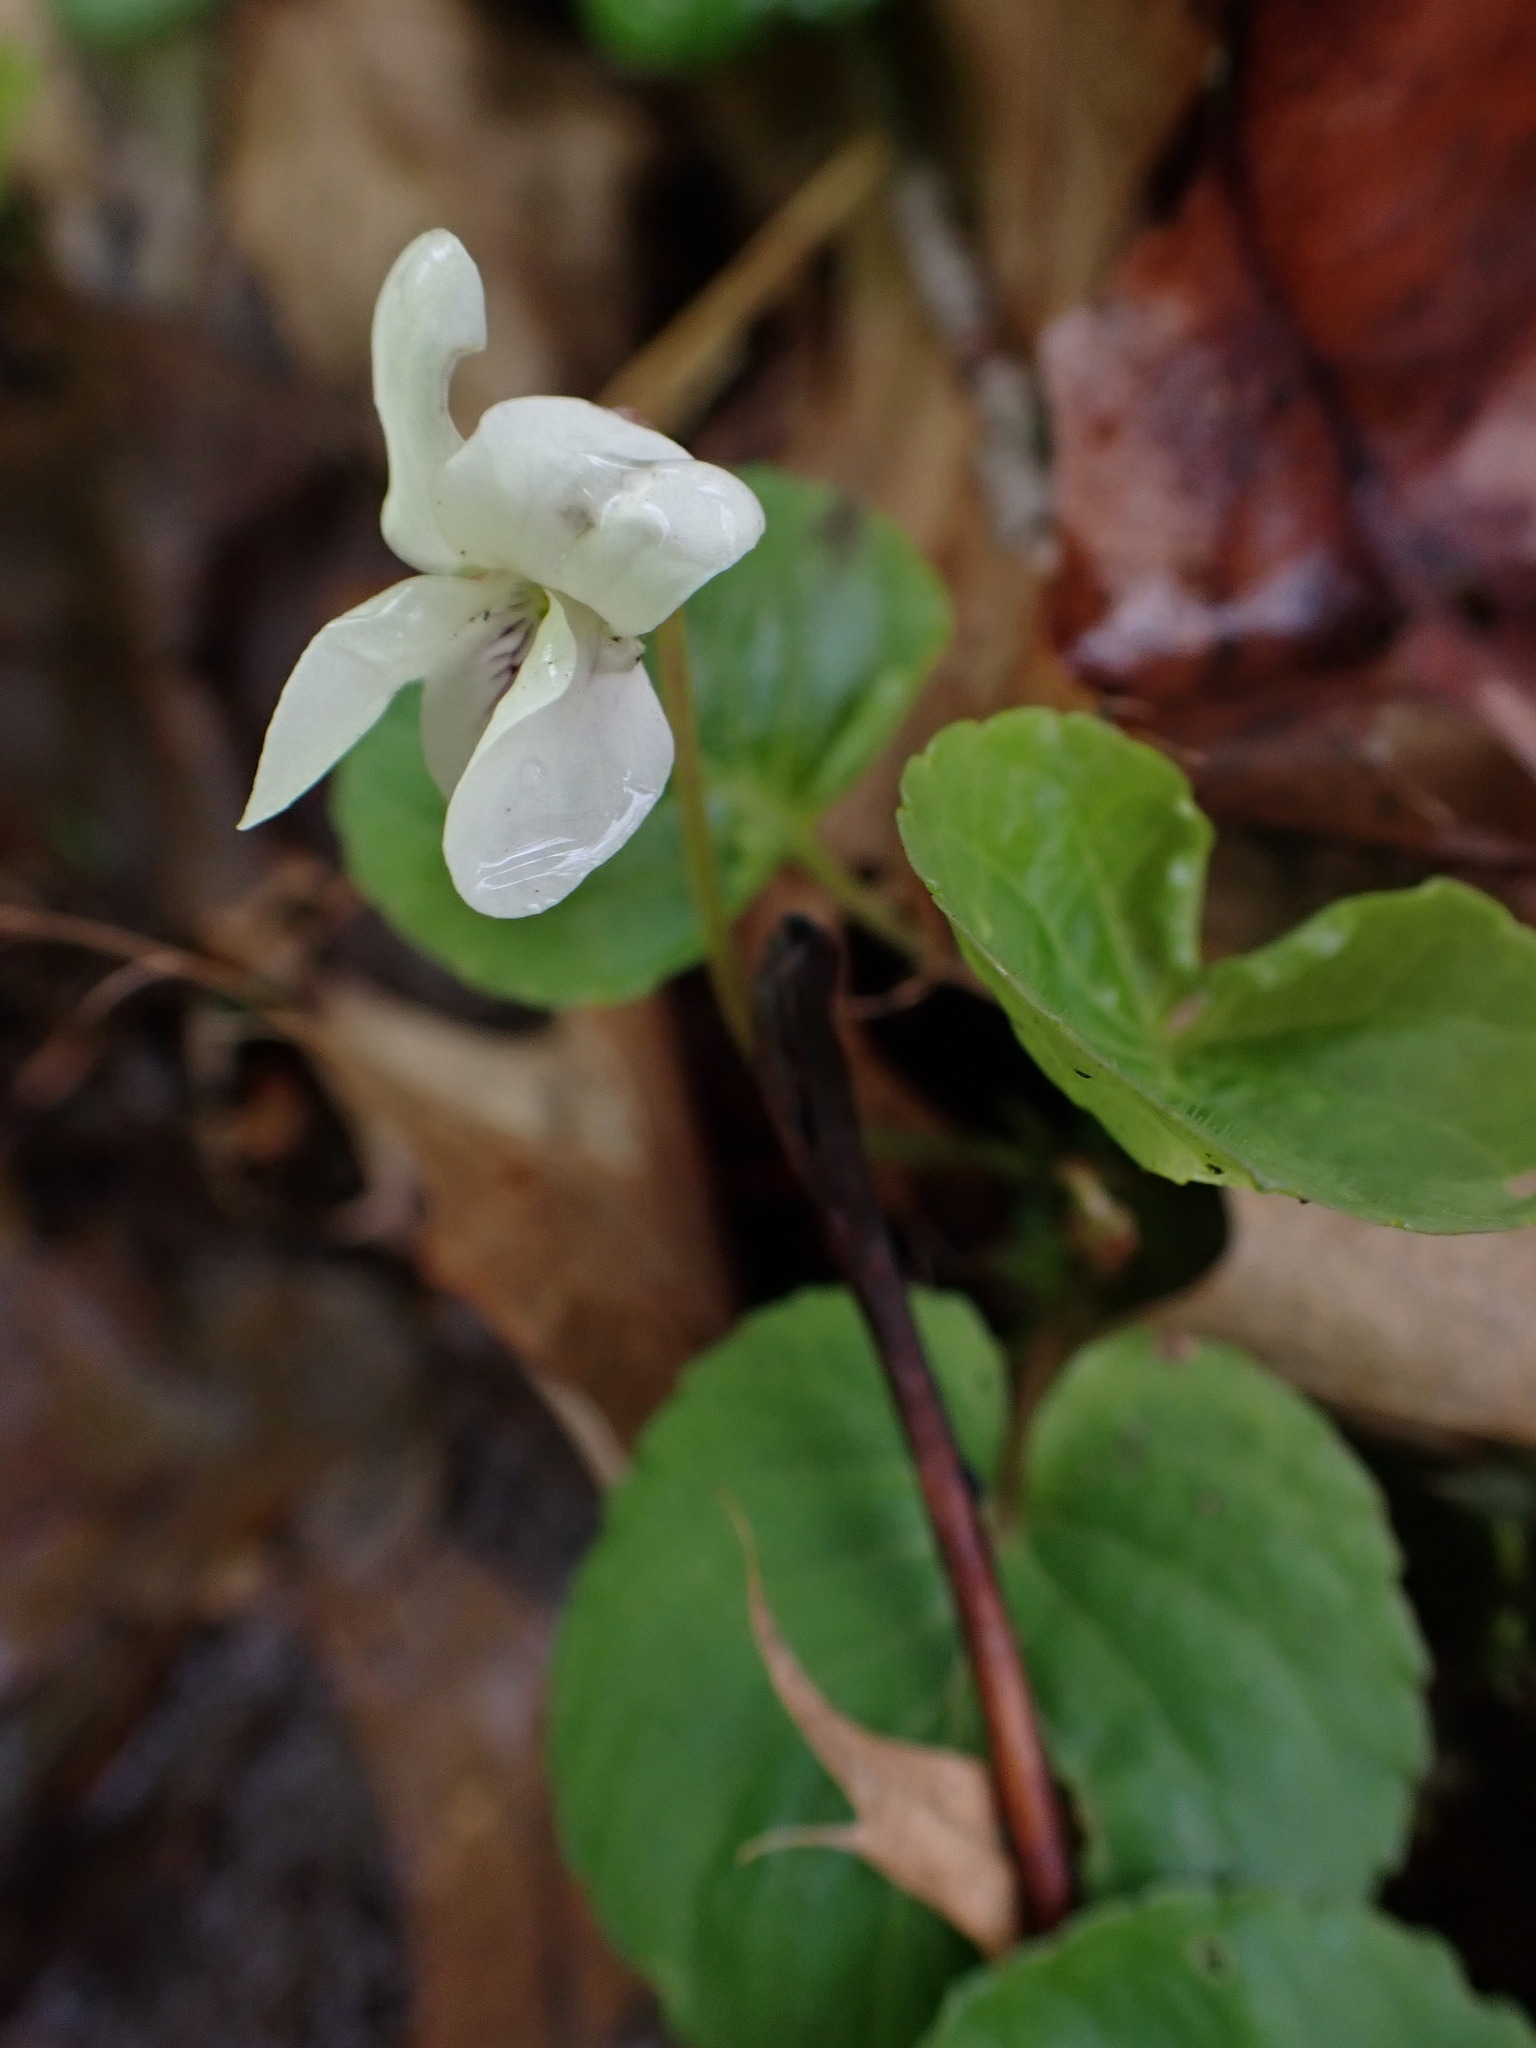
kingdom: Plantae
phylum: Tracheophyta
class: Magnoliopsida
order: Malpighiales
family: Violaceae
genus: Viola
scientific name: Viola blanda
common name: Sweet white violet
